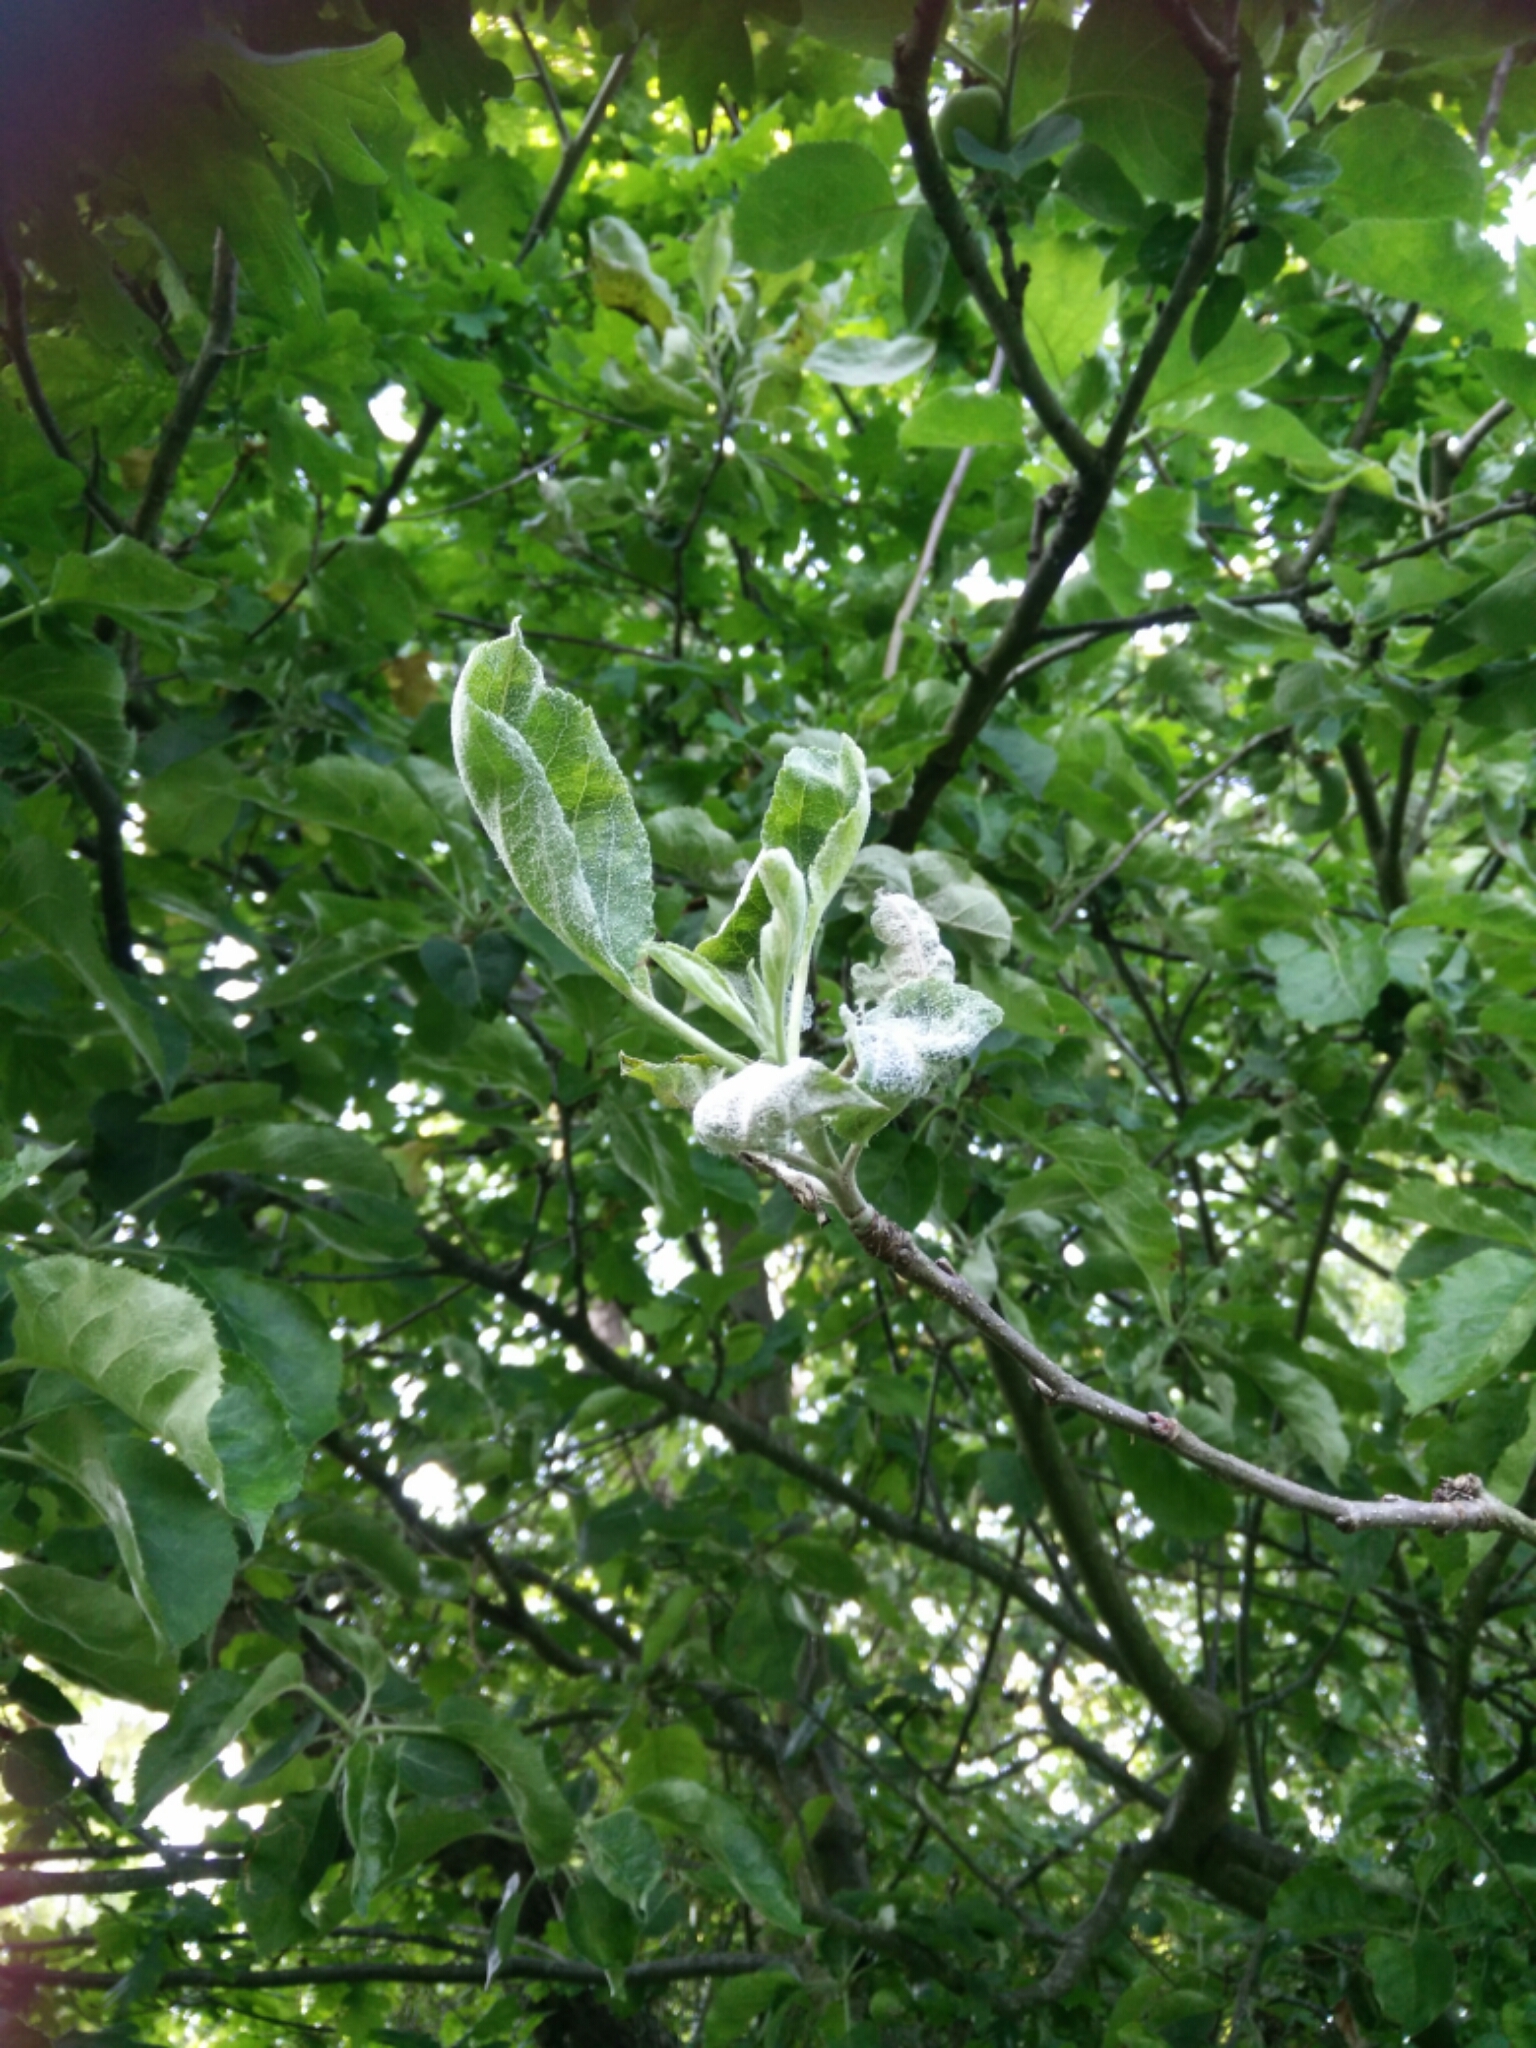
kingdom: Fungi
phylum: Ascomycota
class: Leotiomycetes
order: Helotiales
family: Erysiphaceae
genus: Podosphaera
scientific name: Podosphaera leucotricha
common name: Apple powdery mildew
